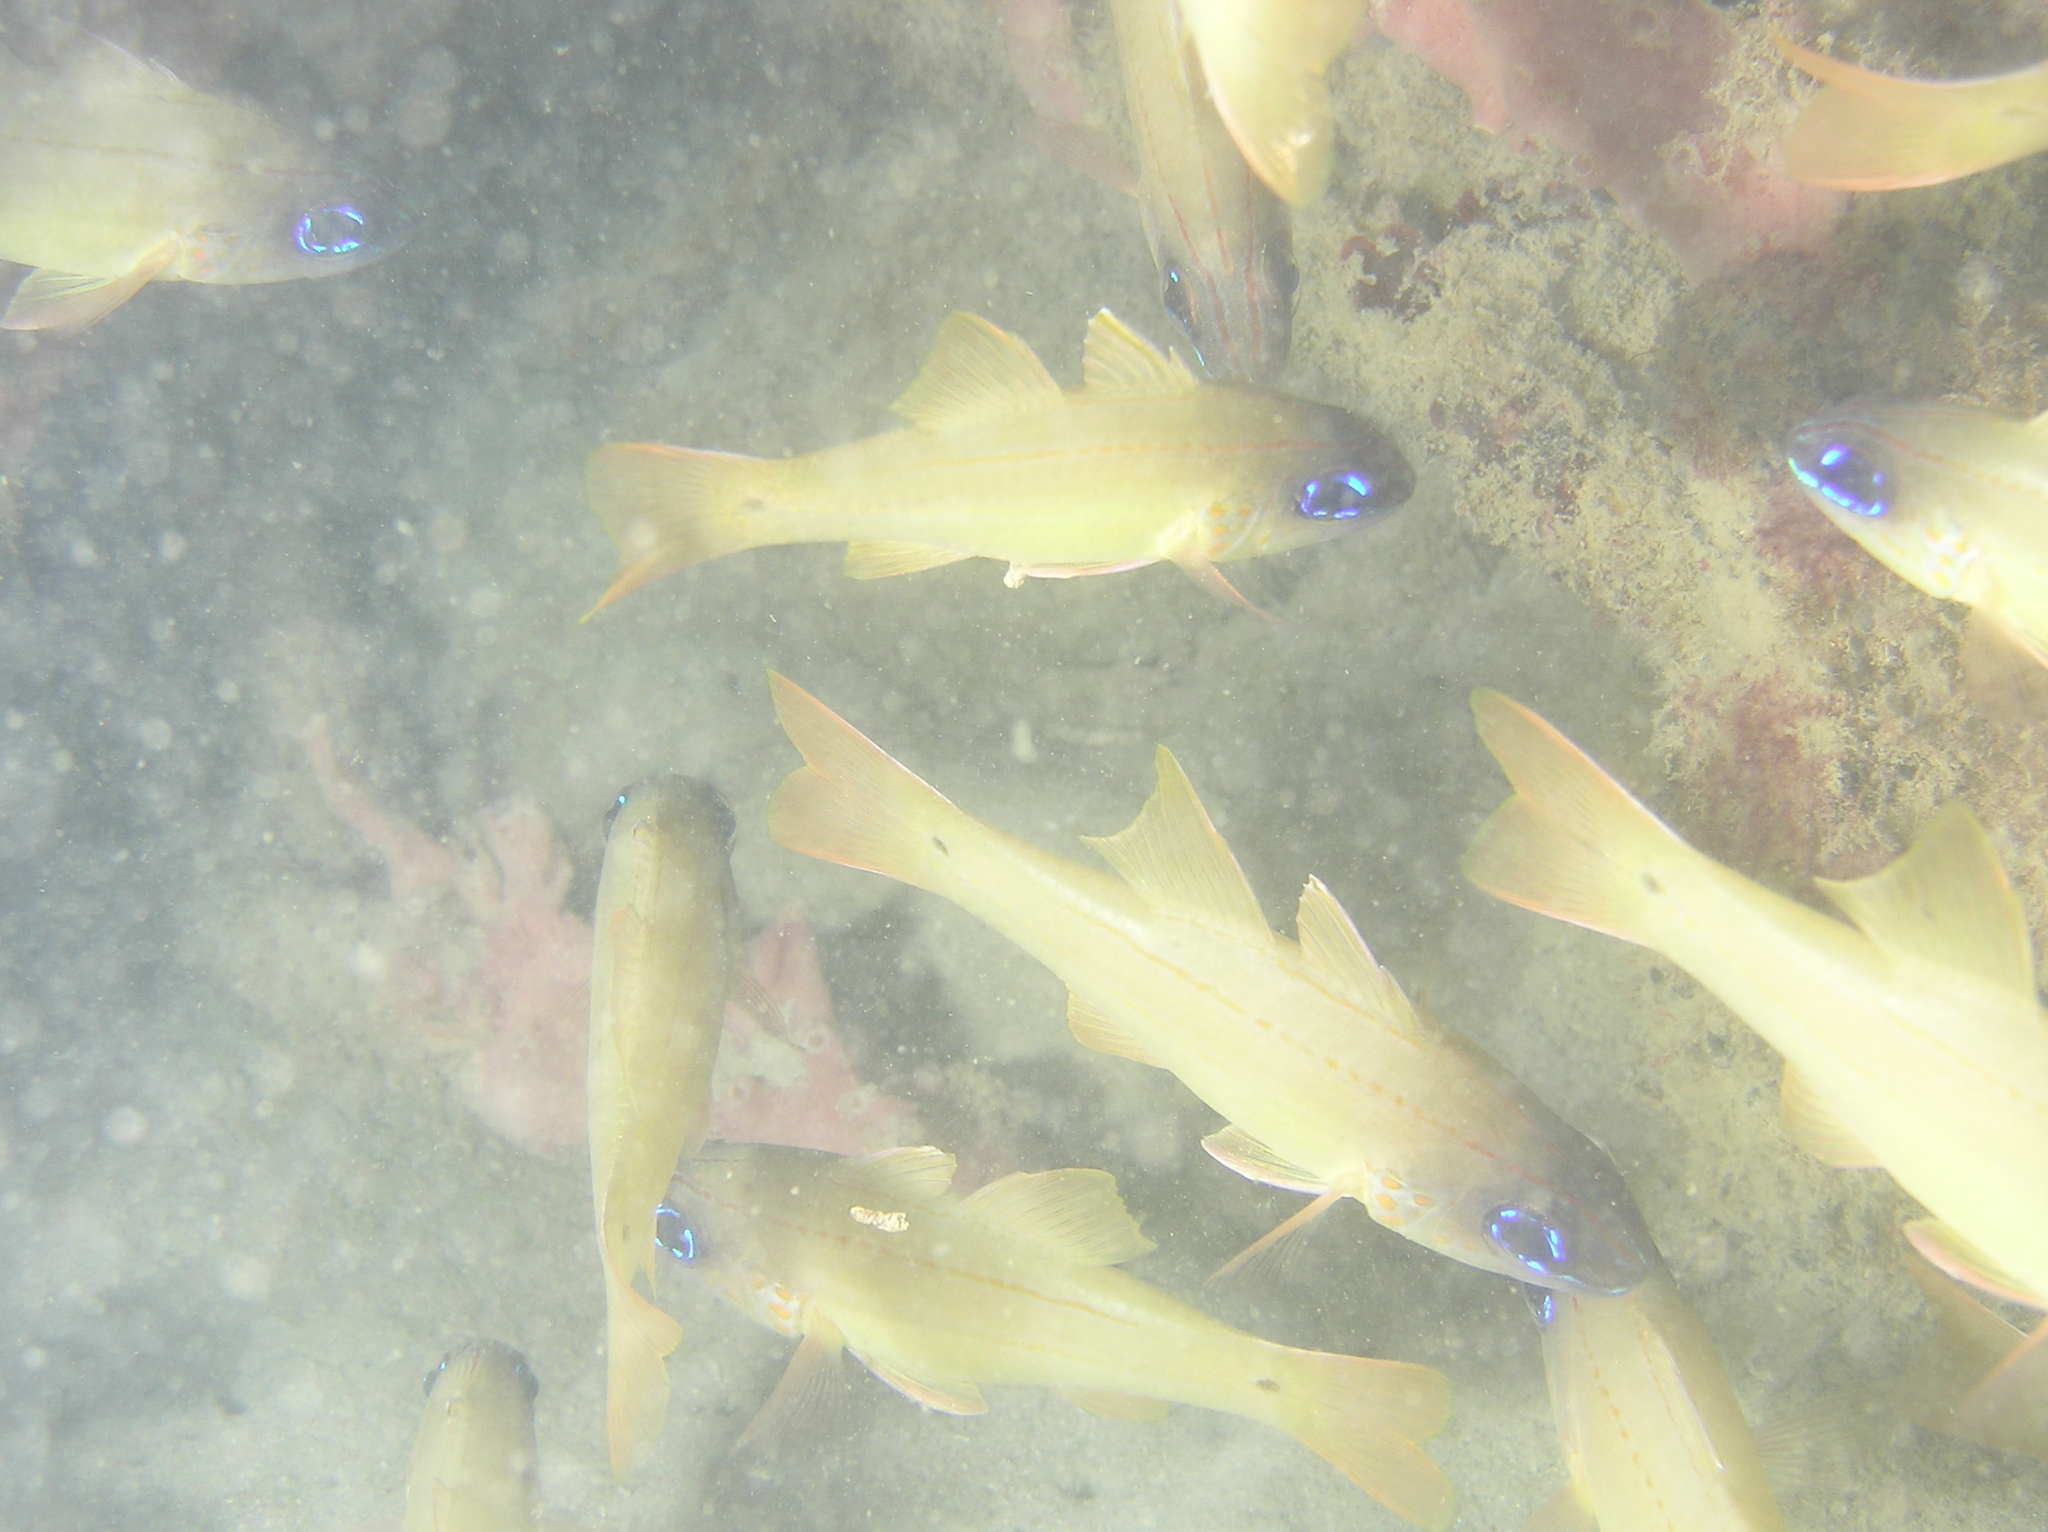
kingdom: Animalia
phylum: Chordata
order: Perciformes
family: Apogonidae
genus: Ostorhinchus
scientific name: Ostorhinchus chrysopomus
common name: Cheek-spot cardinalfish
